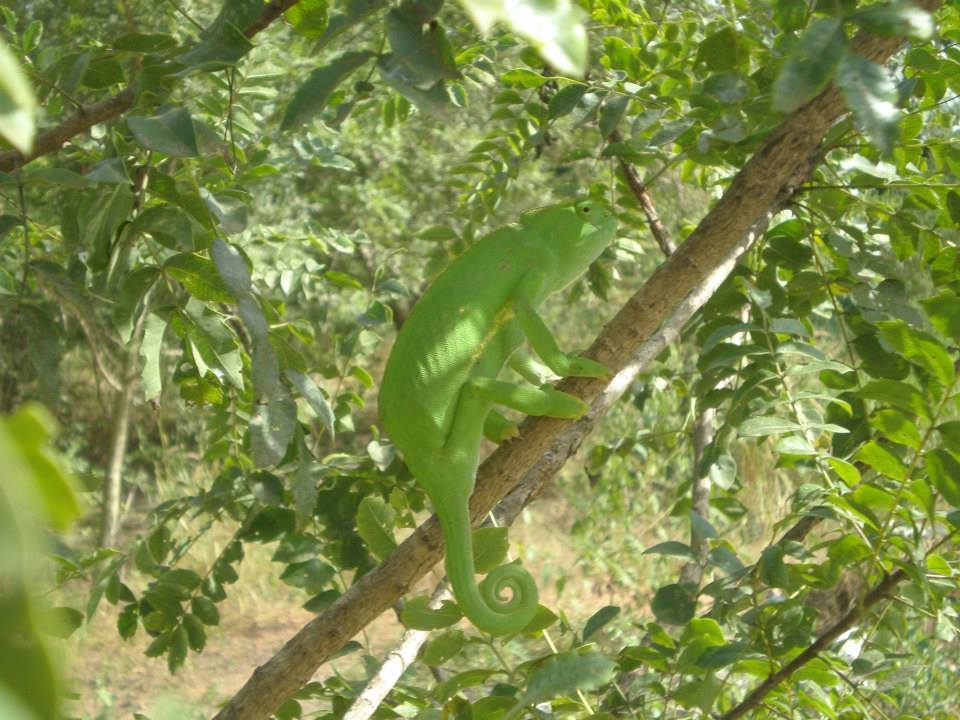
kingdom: Animalia
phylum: Chordata
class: Squamata
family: Chamaeleonidae
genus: Chamaeleo
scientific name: Chamaeleo senegalensis
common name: Senegal chameleon
